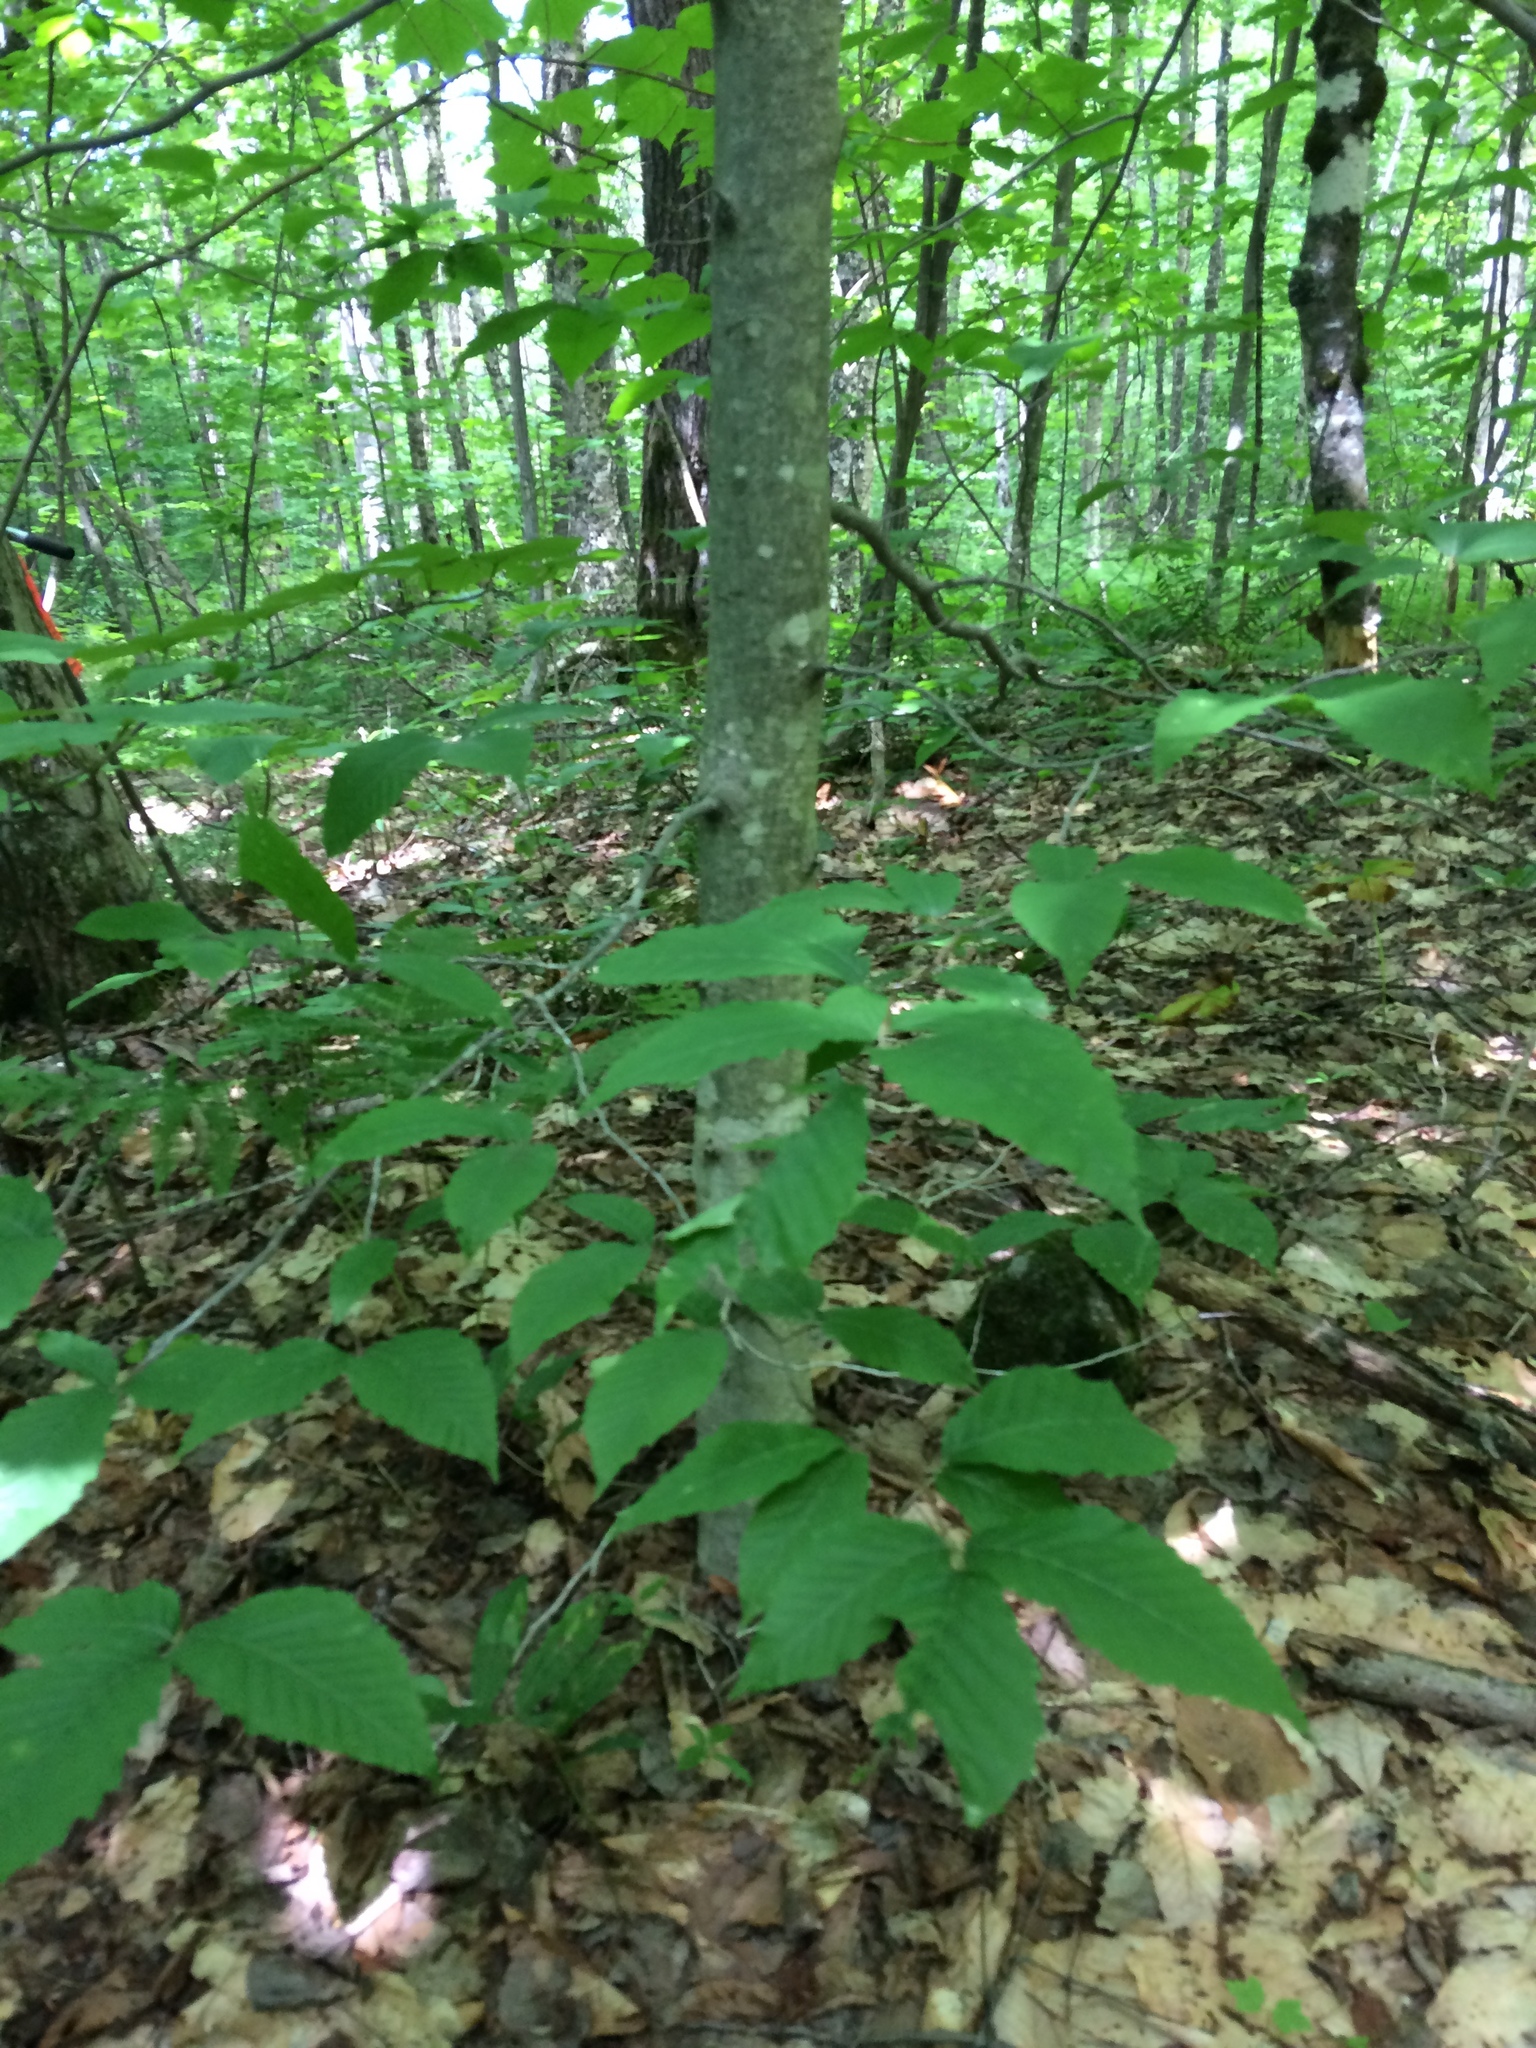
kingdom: Plantae
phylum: Tracheophyta
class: Magnoliopsida
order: Fagales
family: Fagaceae
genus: Fagus
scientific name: Fagus grandifolia
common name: American beech
